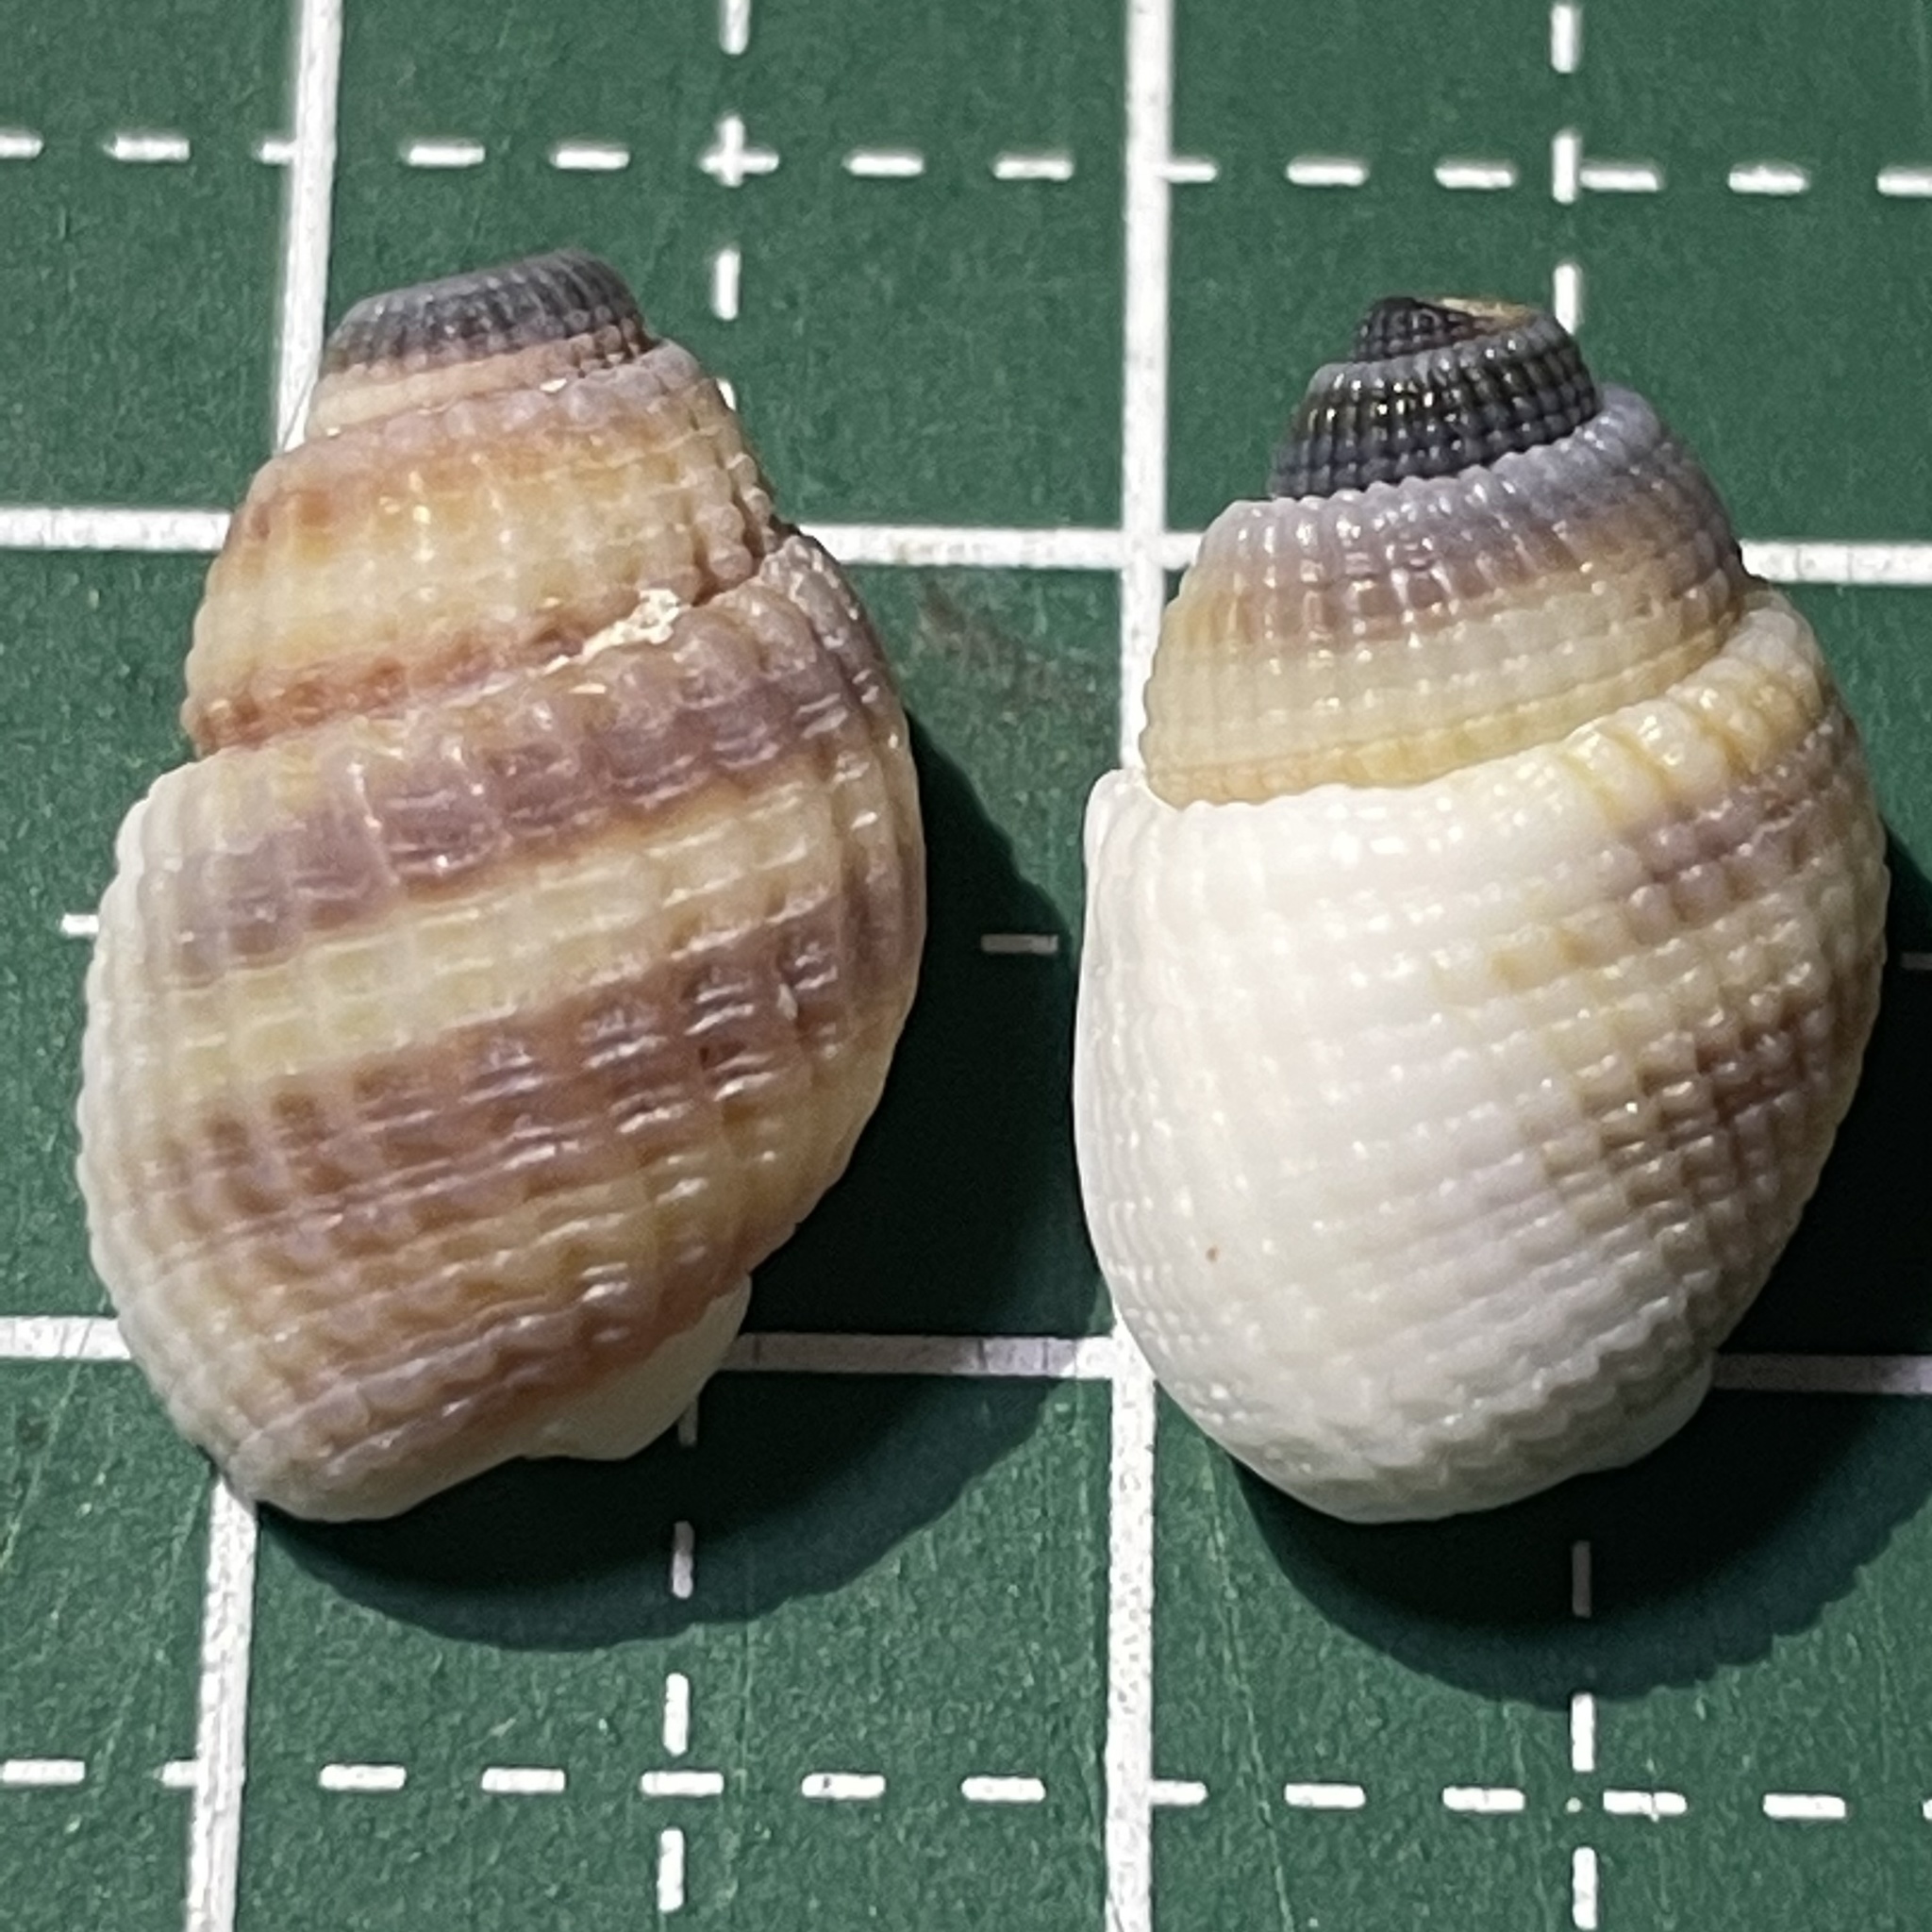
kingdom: Animalia
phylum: Mollusca
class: Gastropoda
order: Neogastropoda
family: Nassariidae
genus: Nassarius
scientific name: Nassarius albescens
